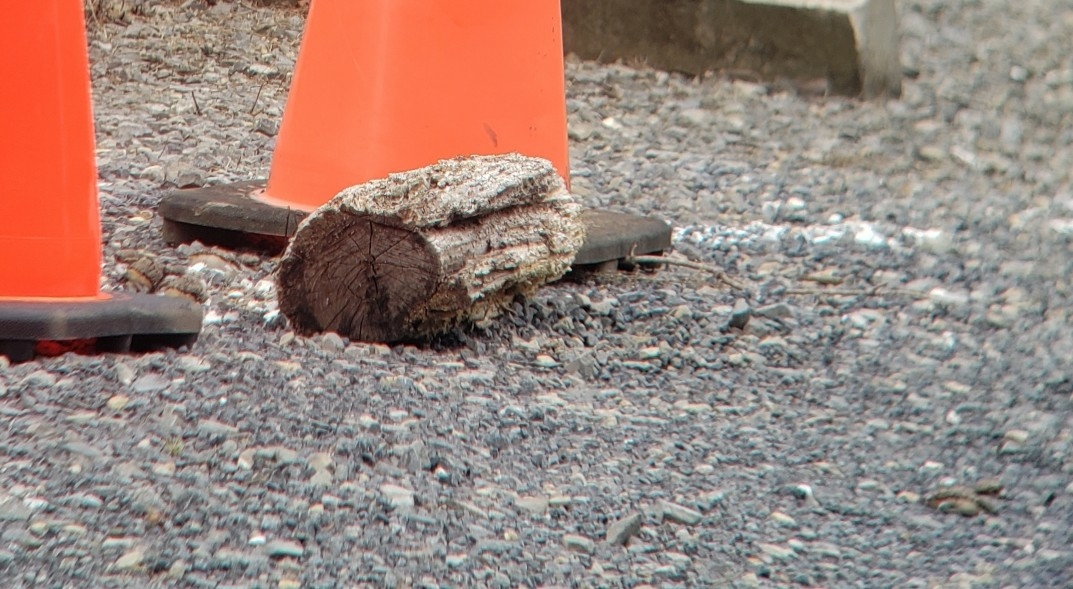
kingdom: Animalia
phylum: Chordata
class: Aves
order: Charadriiformes
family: Charadriidae
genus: Charadrius
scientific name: Charadrius vociferus
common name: Killdeer
